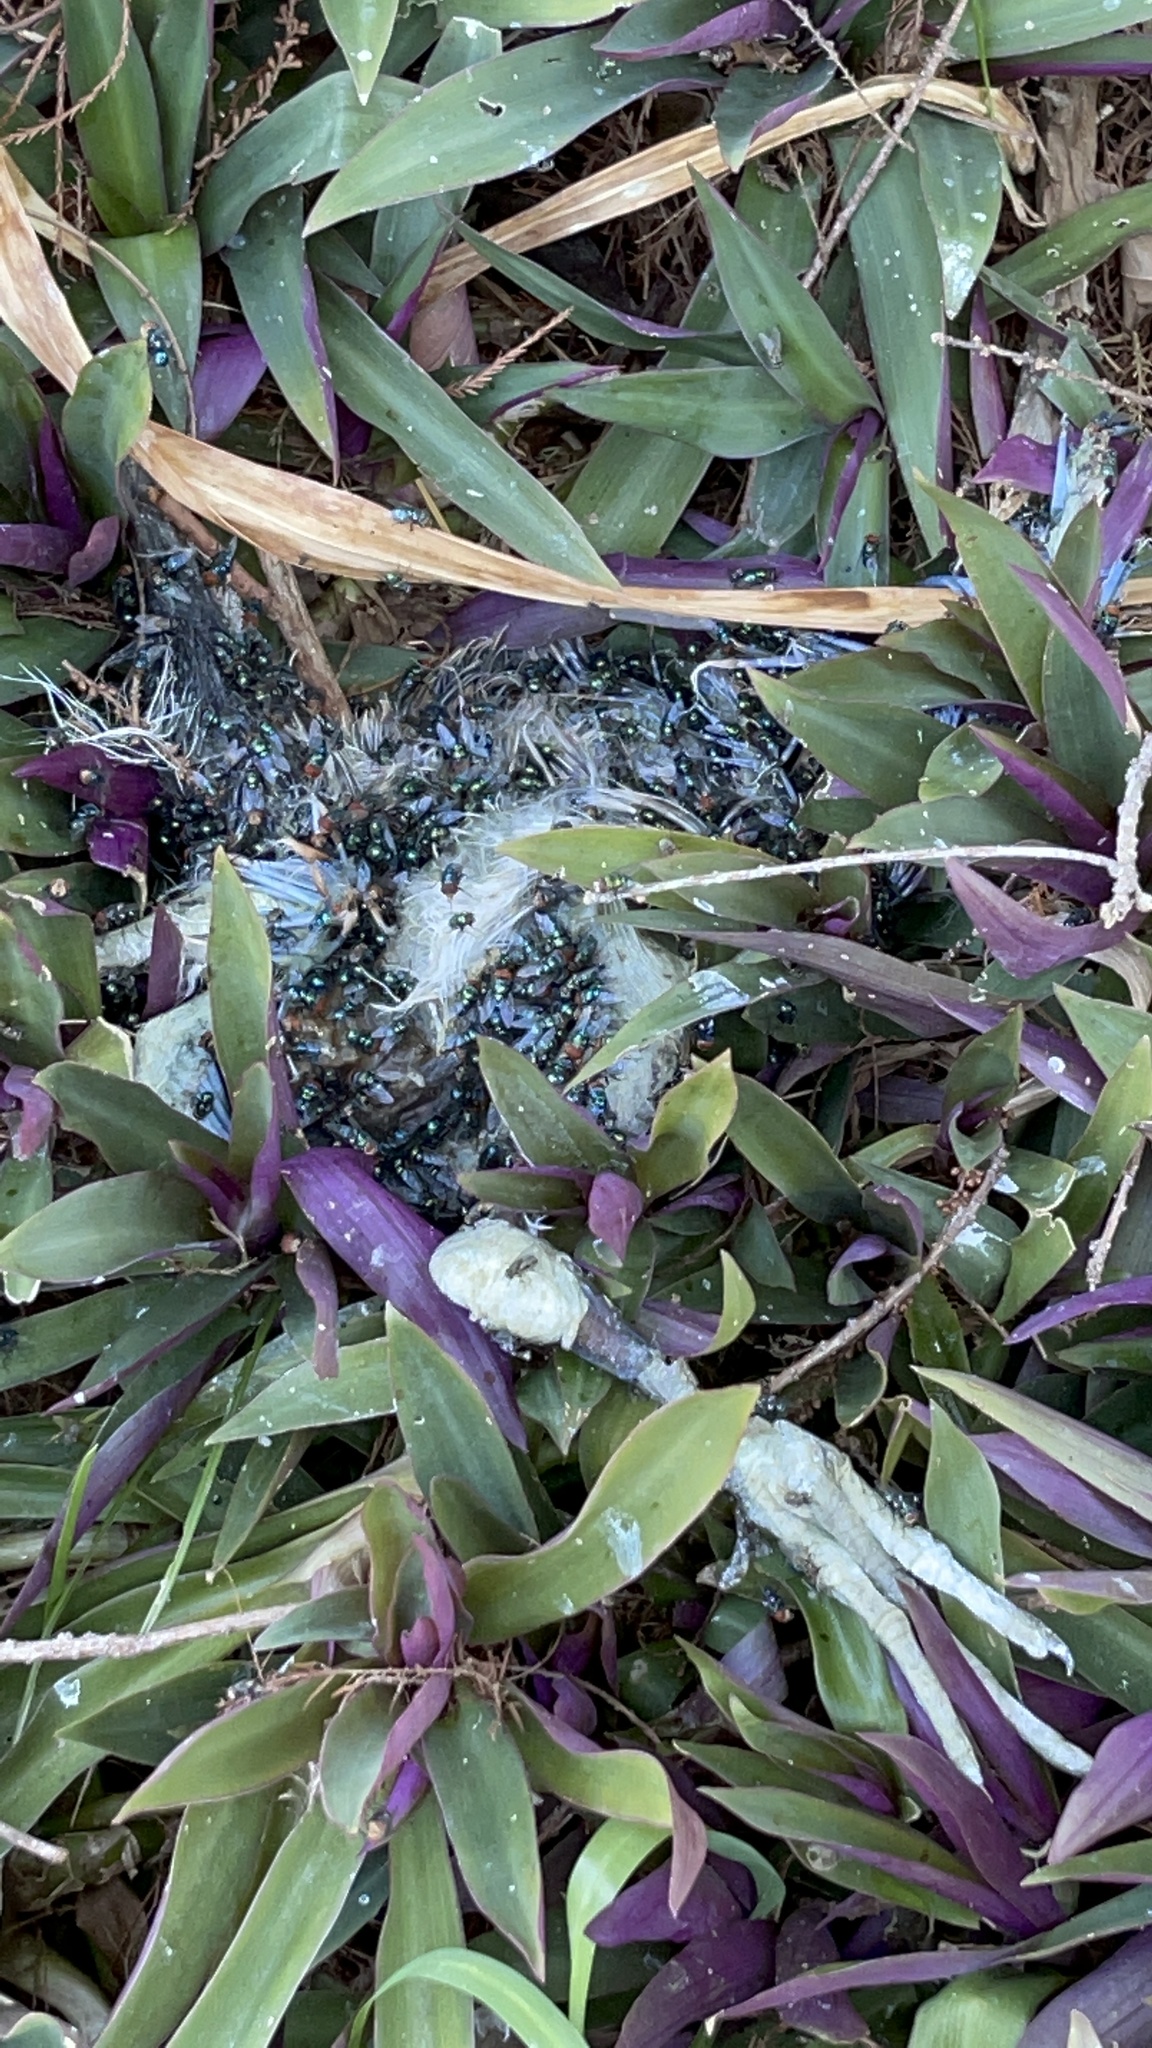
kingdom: Animalia
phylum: Arthropoda
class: Insecta
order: Diptera
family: Calliphoridae
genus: Chrysomya
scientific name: Chrysomya megacephala
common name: Blow fly
